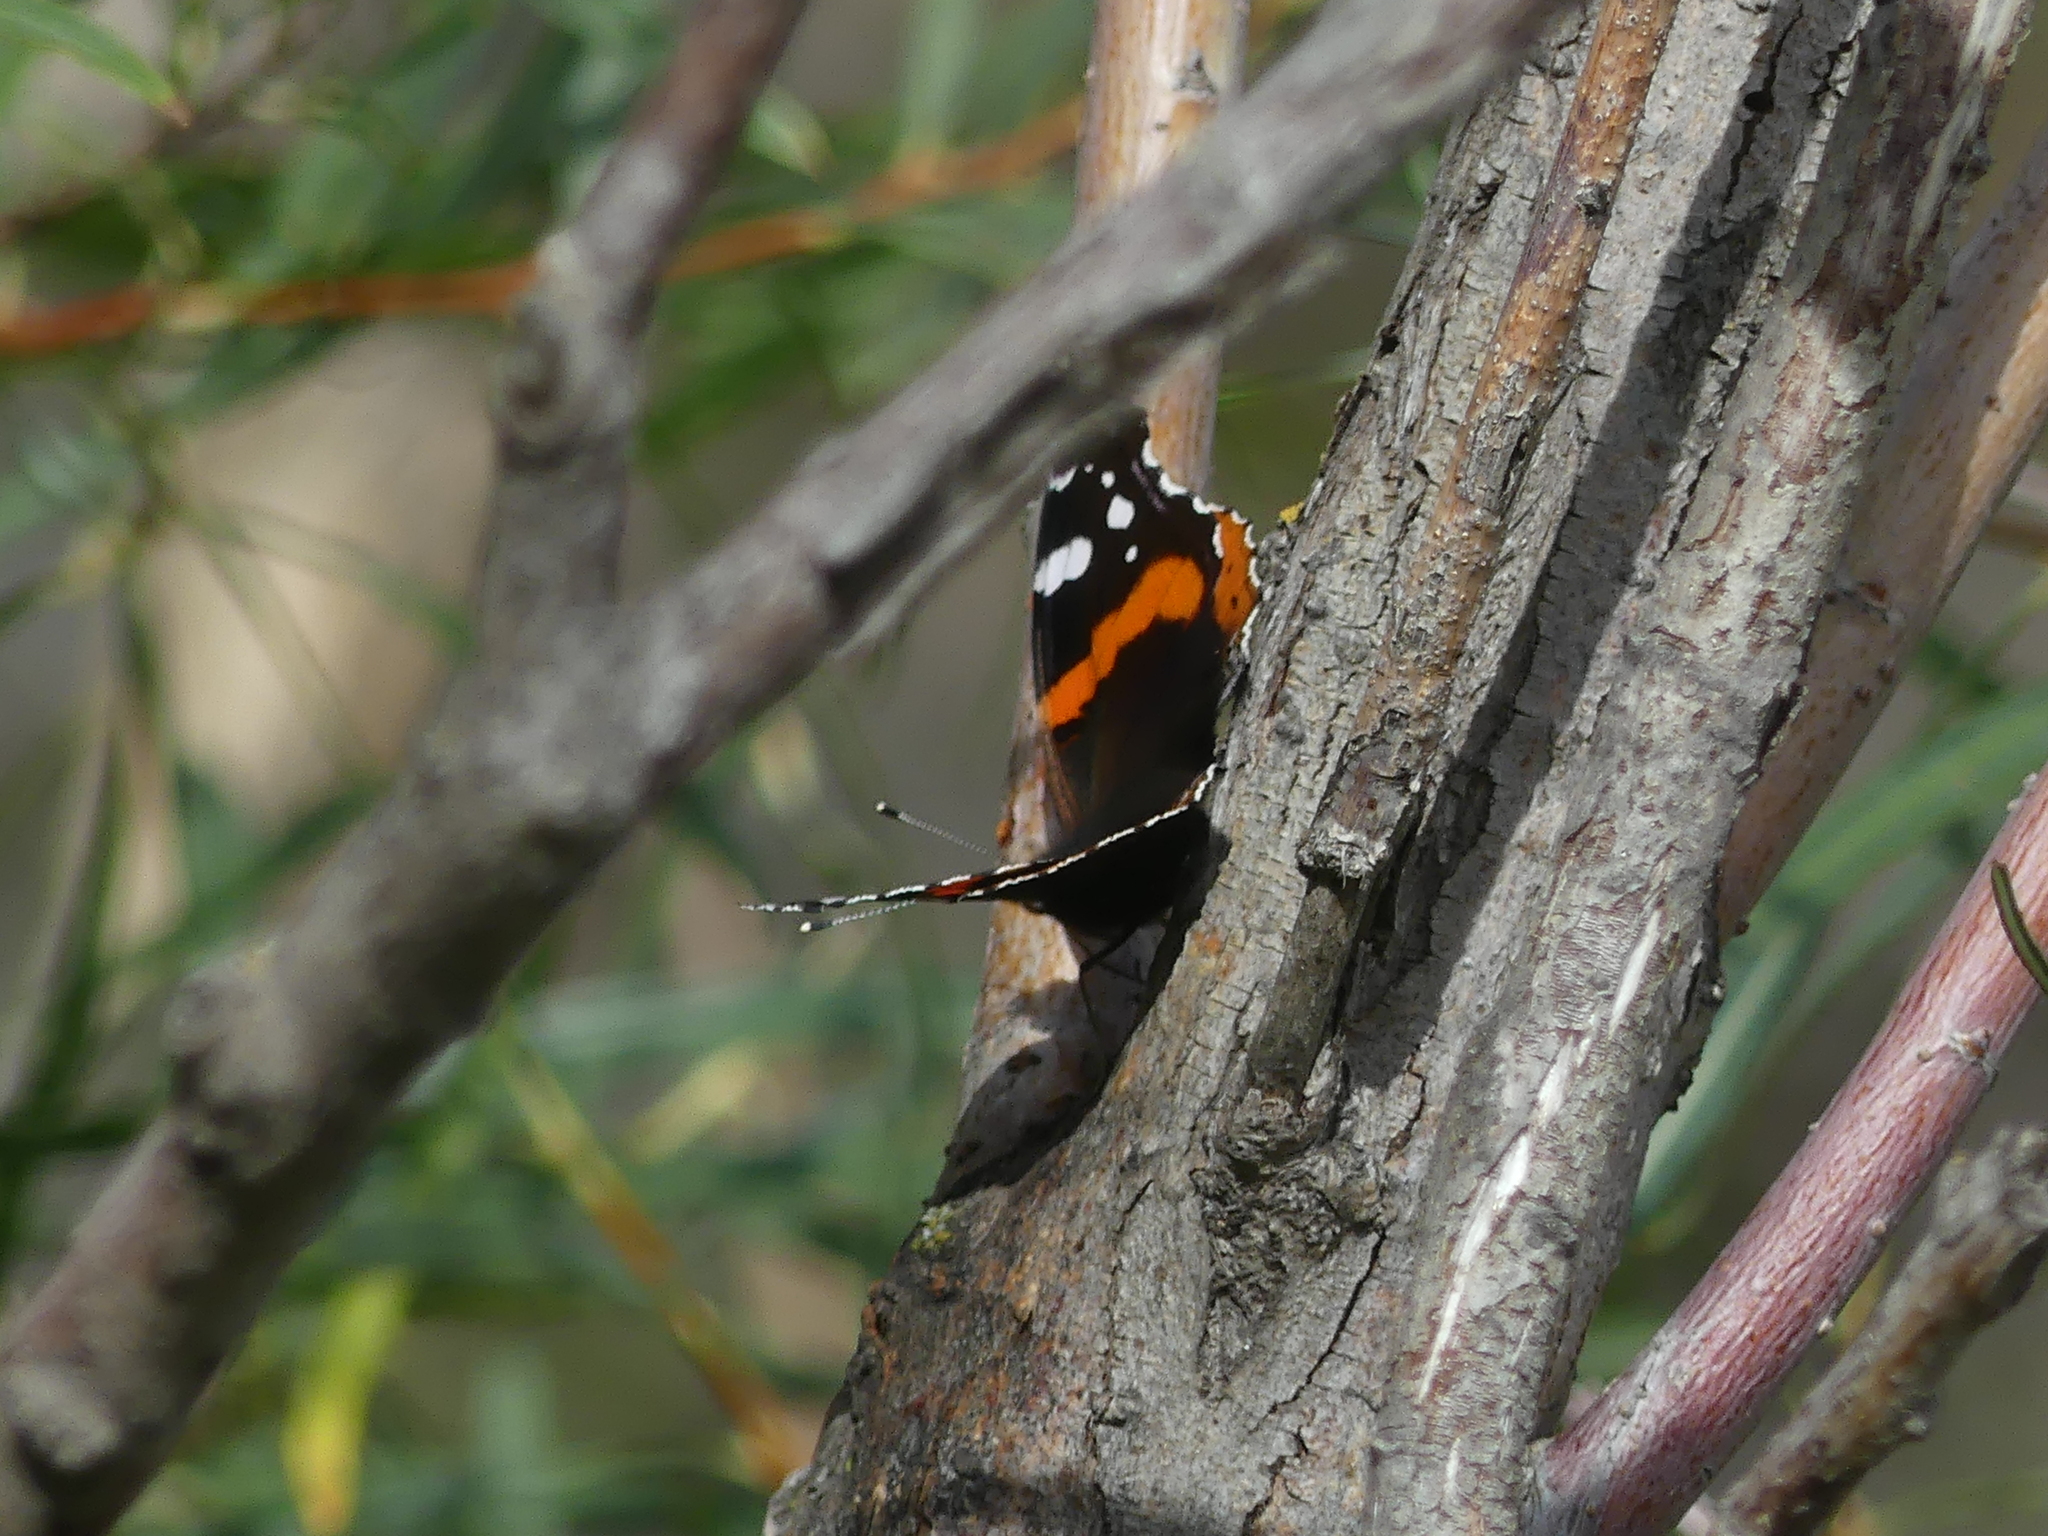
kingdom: Animalia
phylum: Arthropoda
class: Insecta
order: Lepidoptera
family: Nymphalidae
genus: Vanessa
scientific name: Vanessa atalanta
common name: Red admiral
